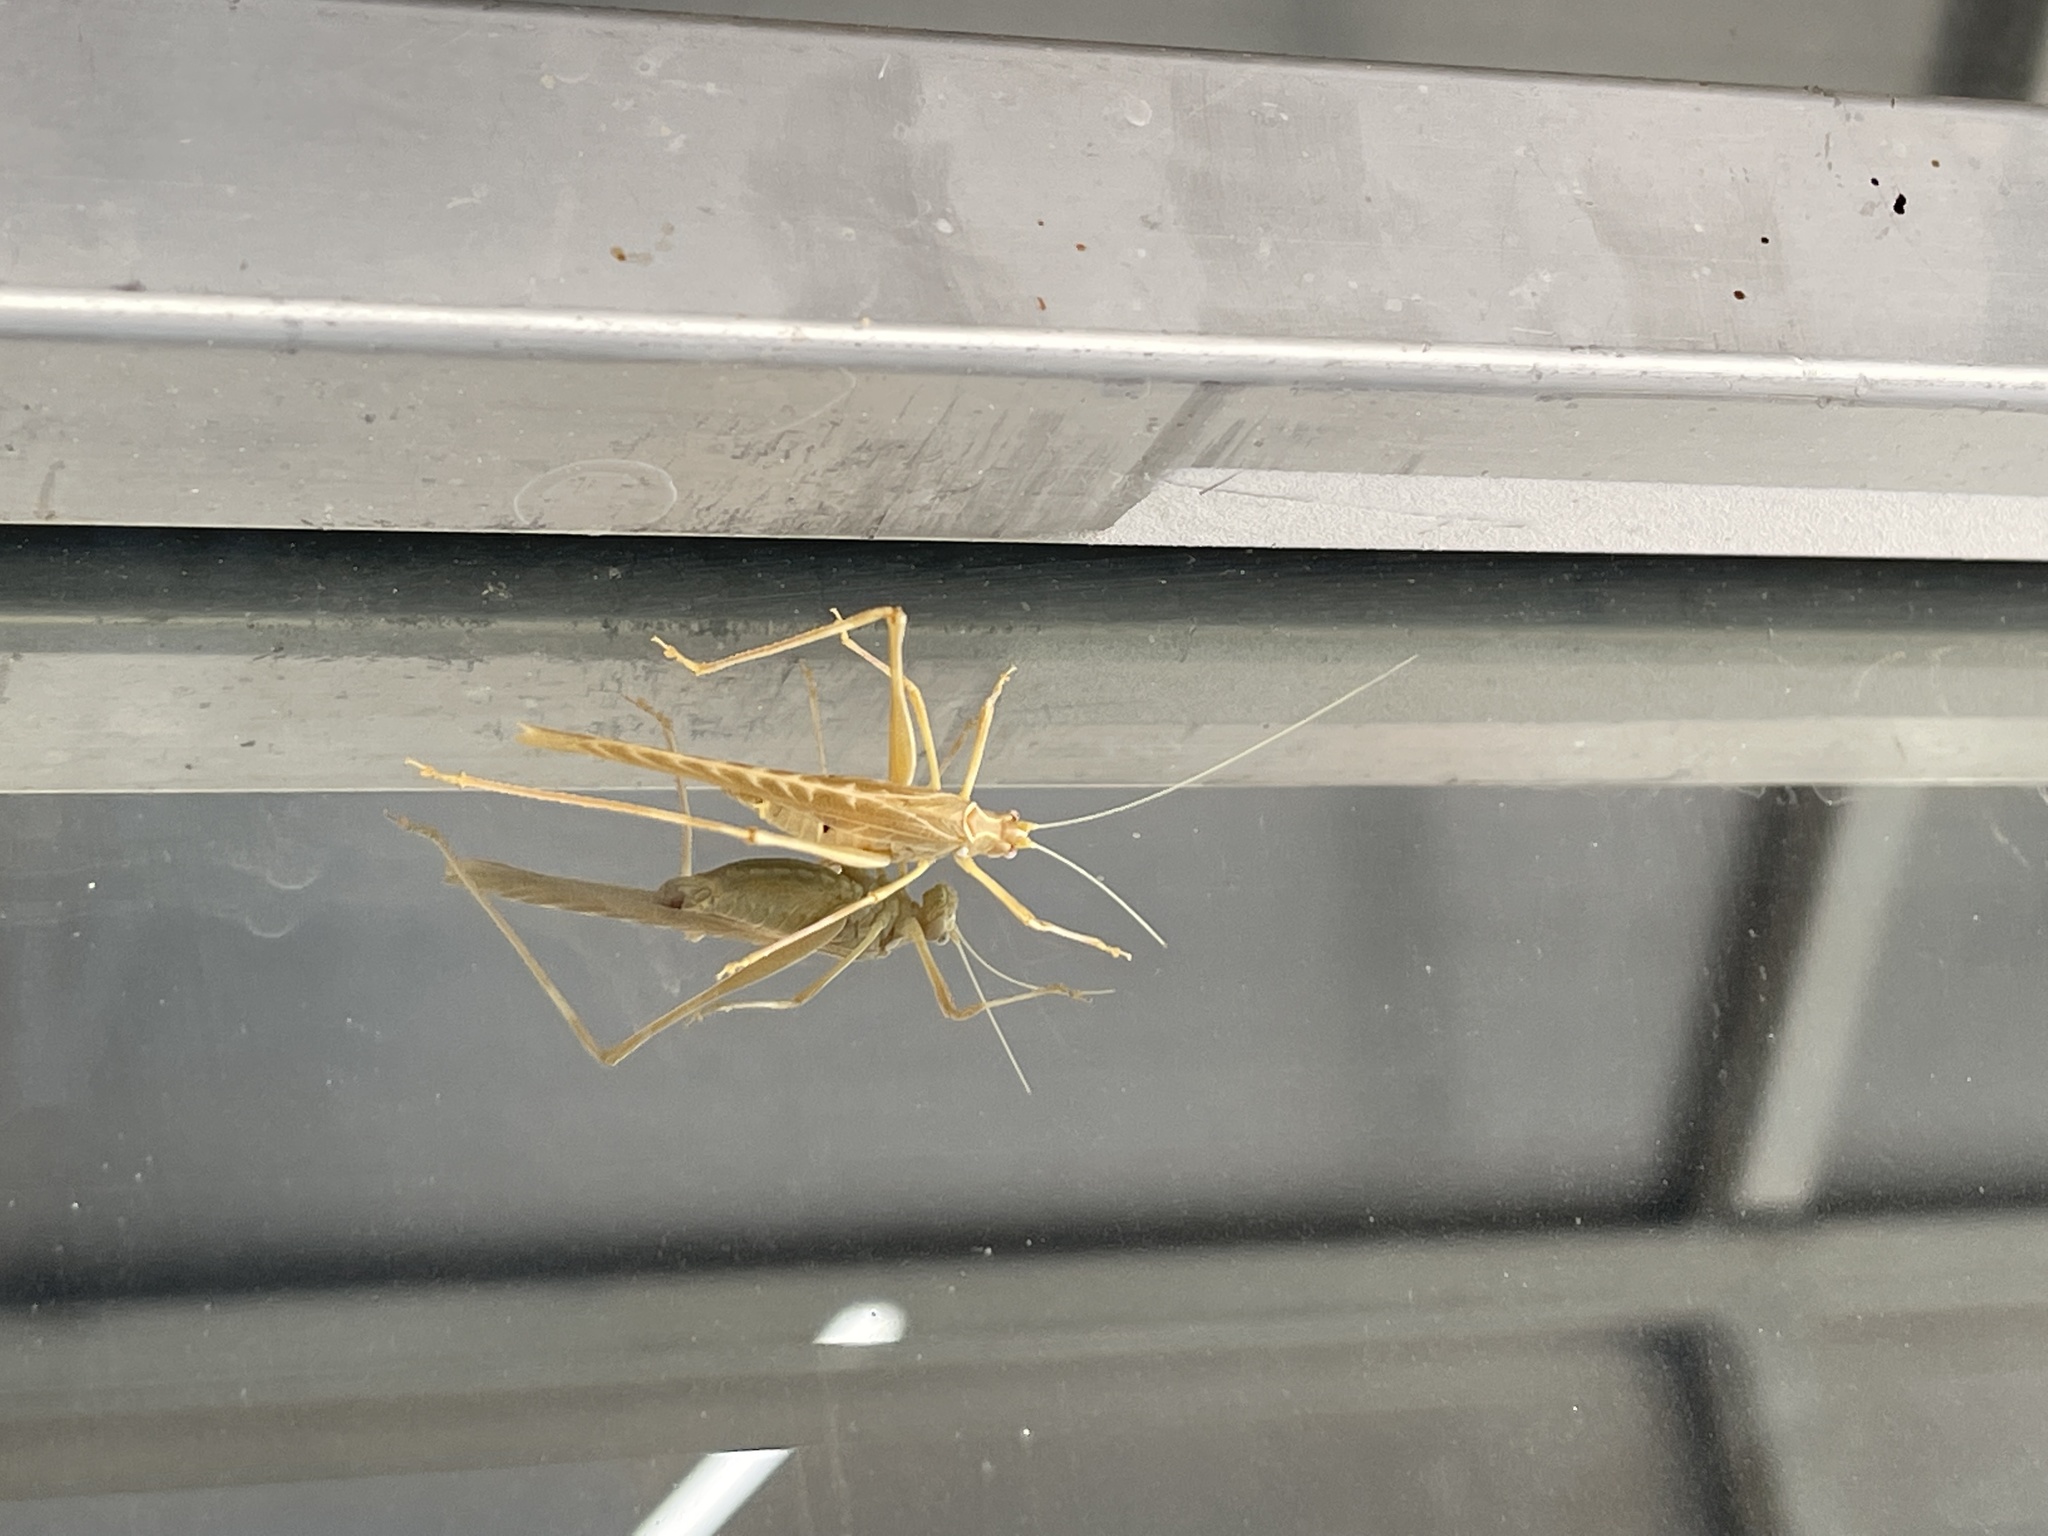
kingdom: Animalia
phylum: Arthropoda
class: Insecta
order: Orthoptera
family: Tettigoniidae
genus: Insara
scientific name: Insara elegans
